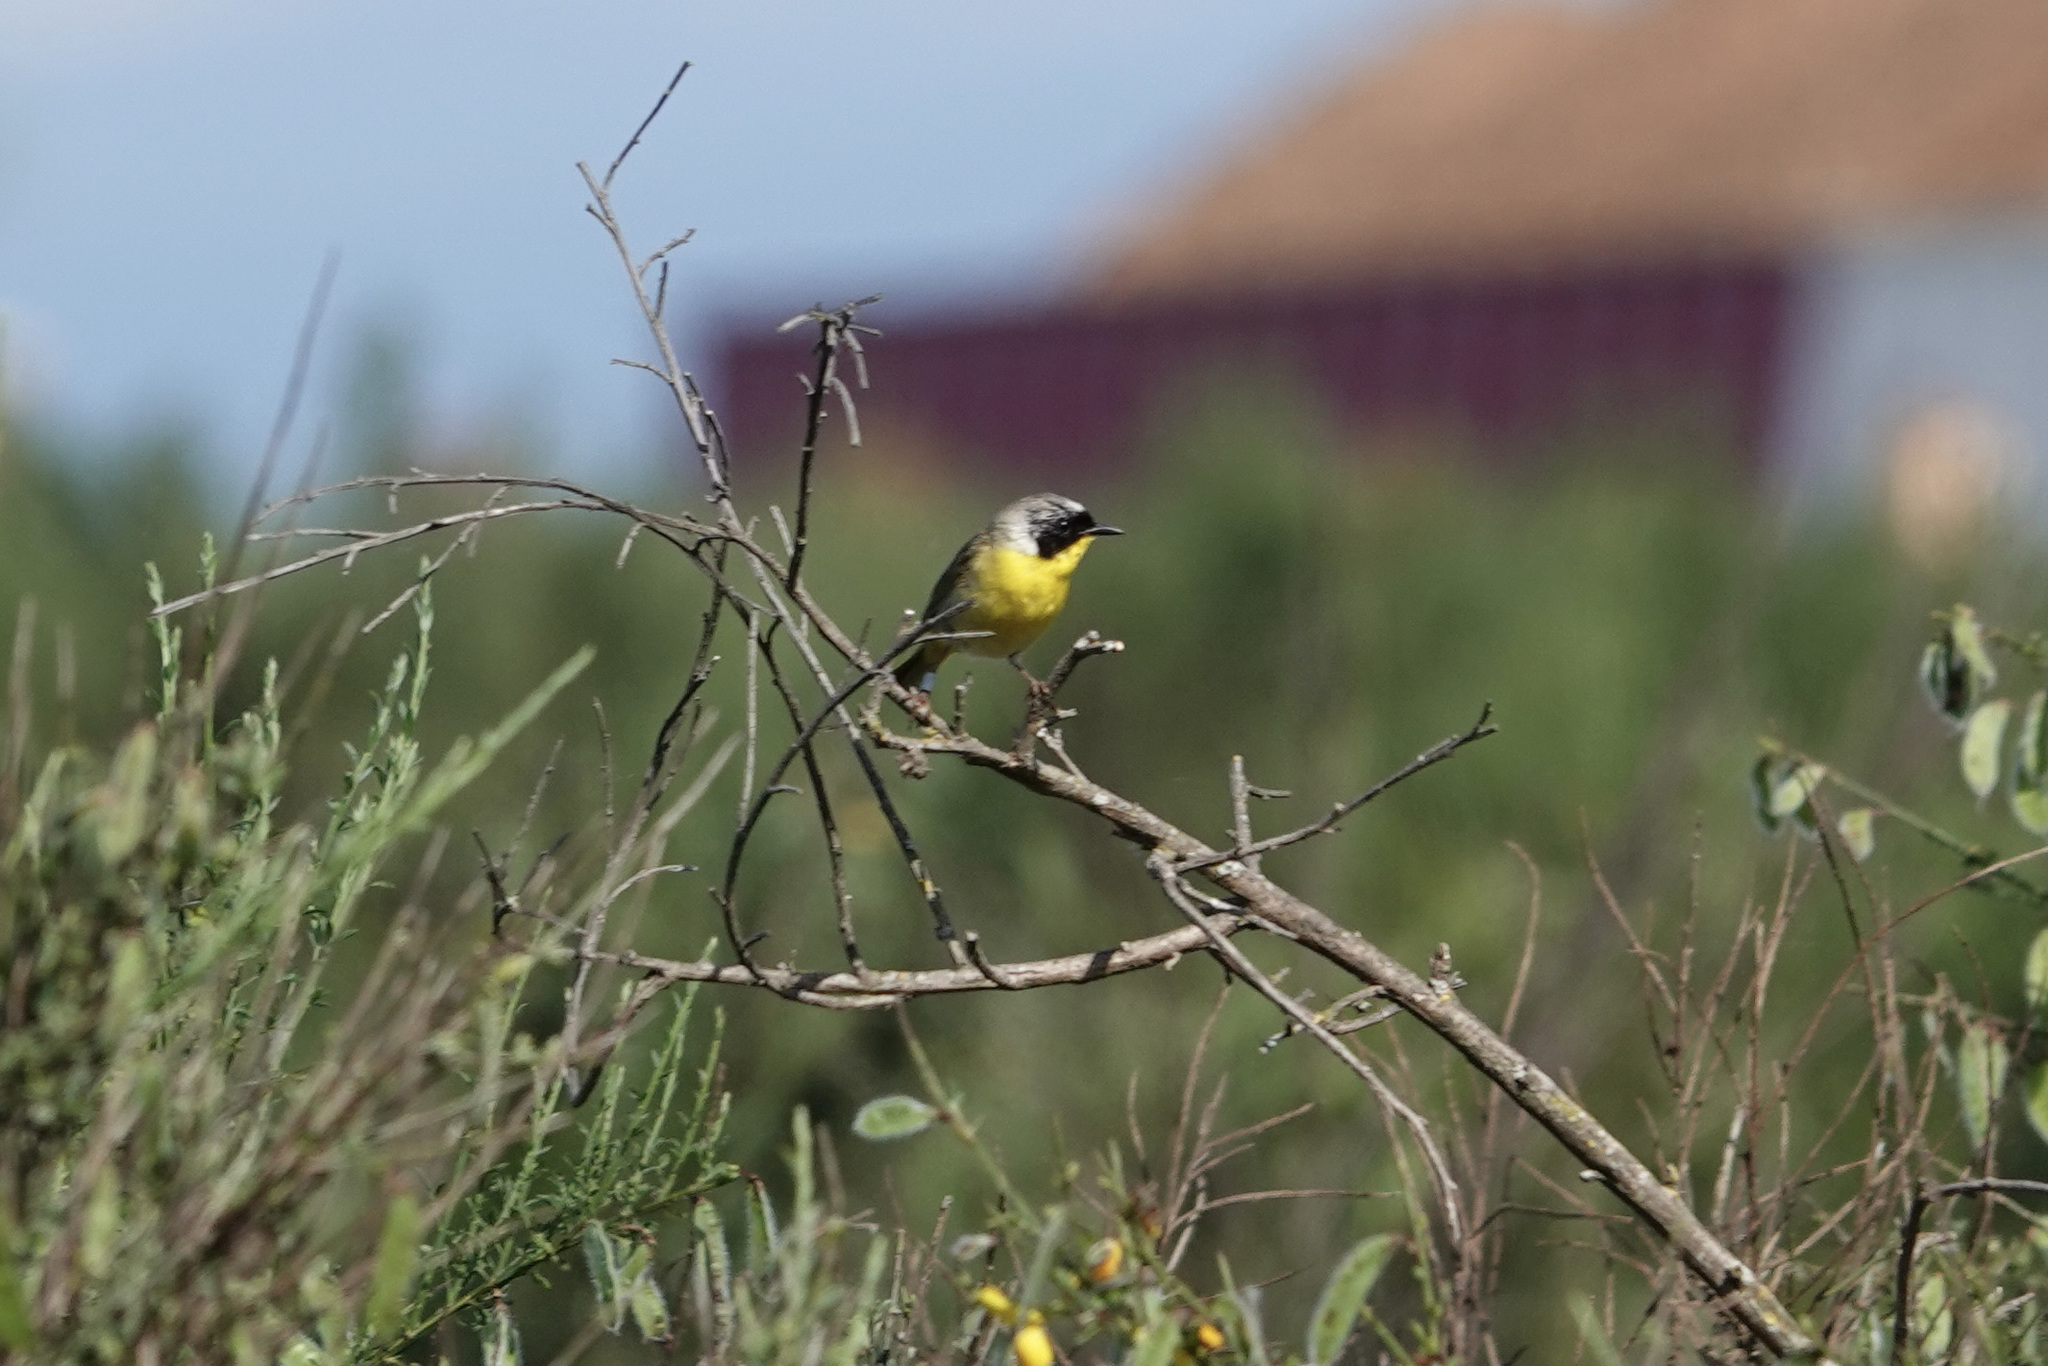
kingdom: Animalia
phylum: Chordata
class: Aves
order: Passeriformes
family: Parulidae
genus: Geothlypis
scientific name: Geothlypis trichas
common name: Common yellowthroat
